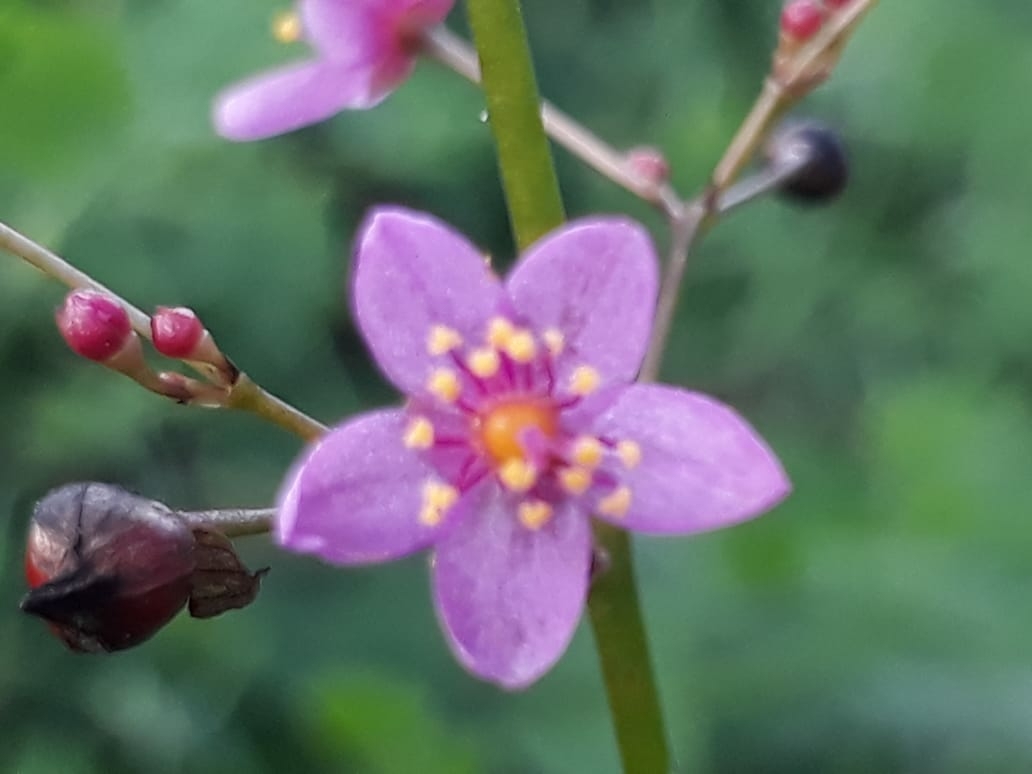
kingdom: Plantae
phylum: Tracheophyta
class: Magnoliopsida
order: Caryophyllales
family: Talinaceae
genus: Talinum
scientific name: Talinum paniculatum
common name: Jewels of opar
